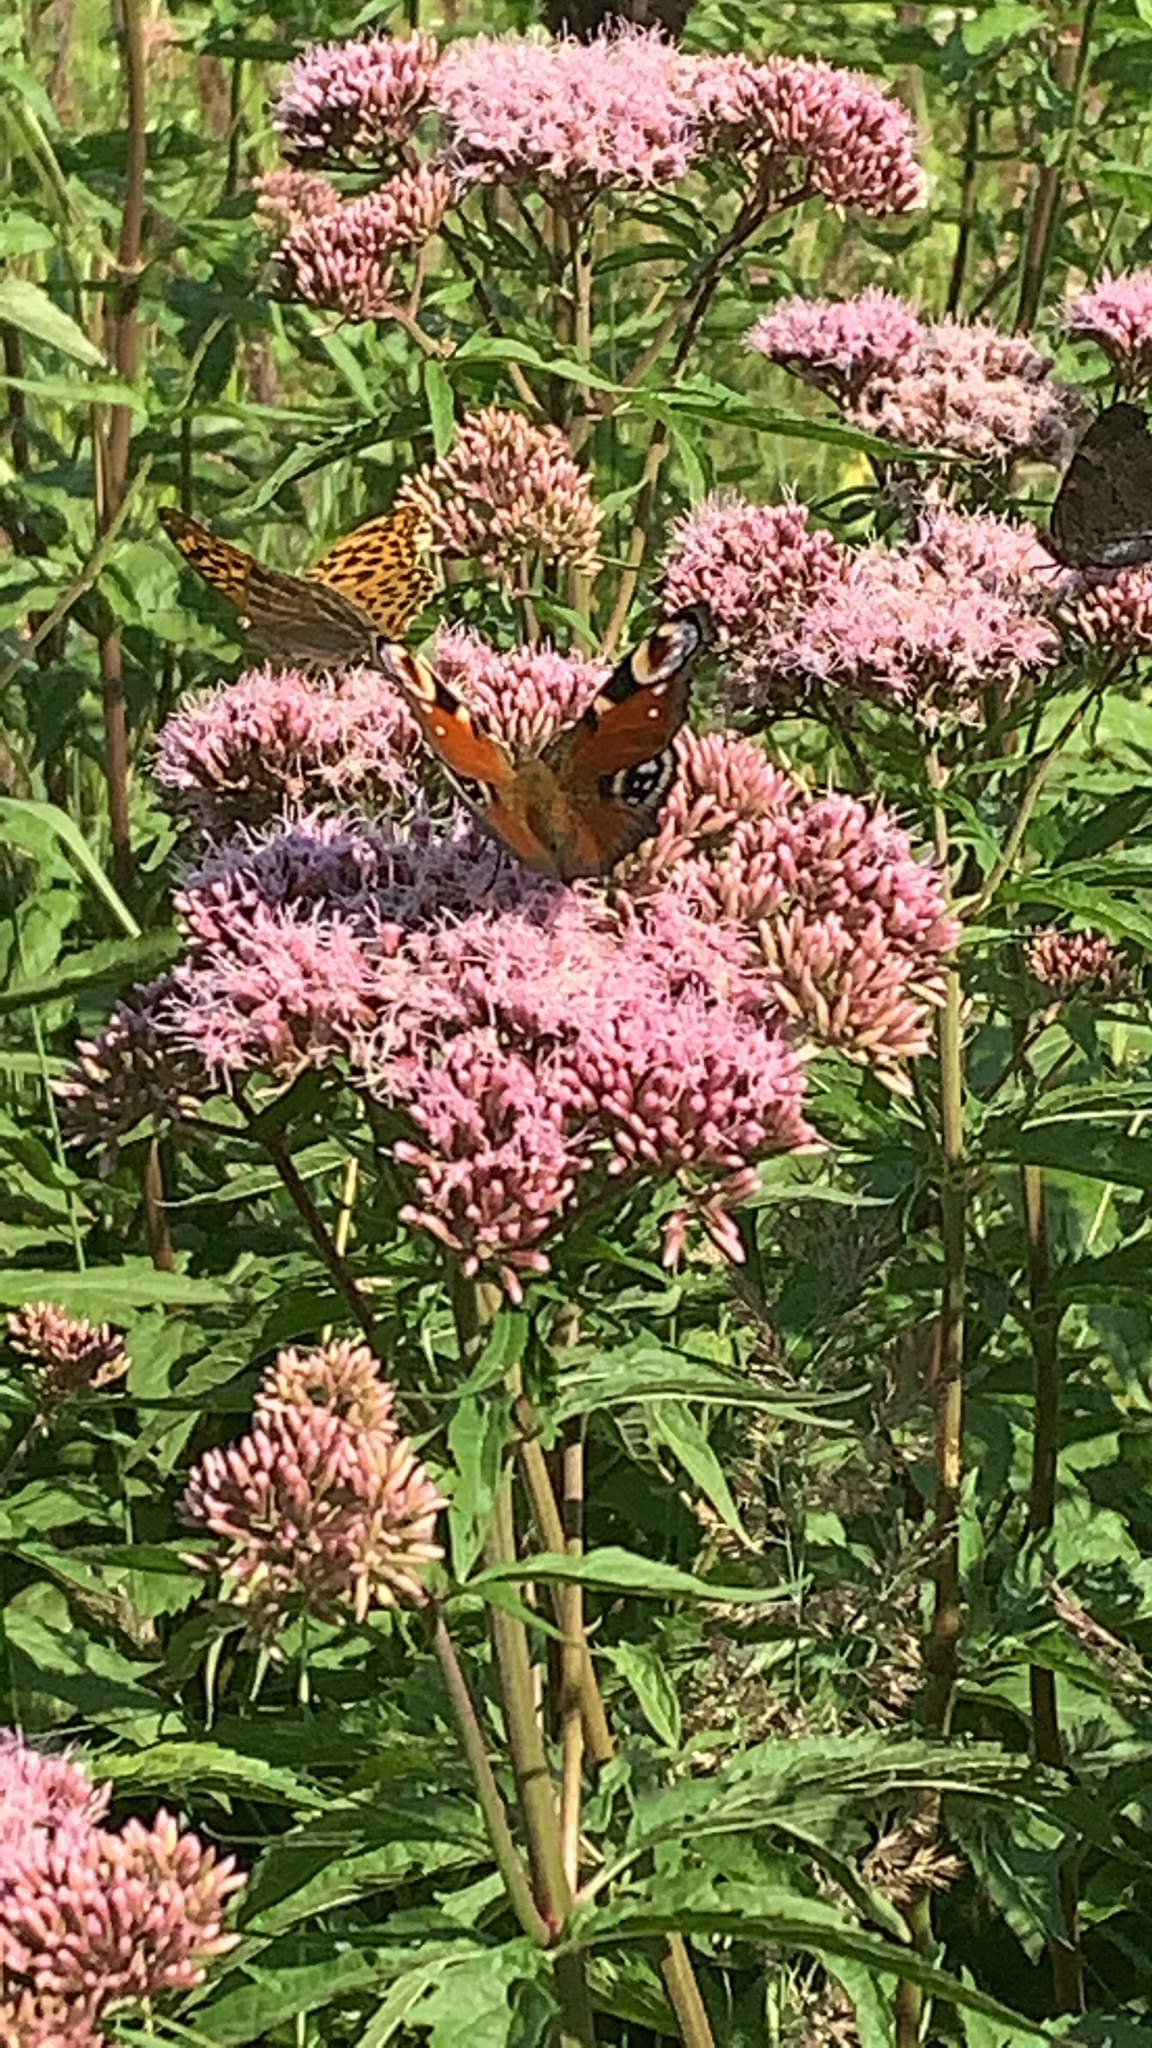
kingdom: Animalia
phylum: Arthropoda
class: Insecta
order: Lepidoptera
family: Nymphalidae
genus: Aglais
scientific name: Aglais io
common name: Peacock
